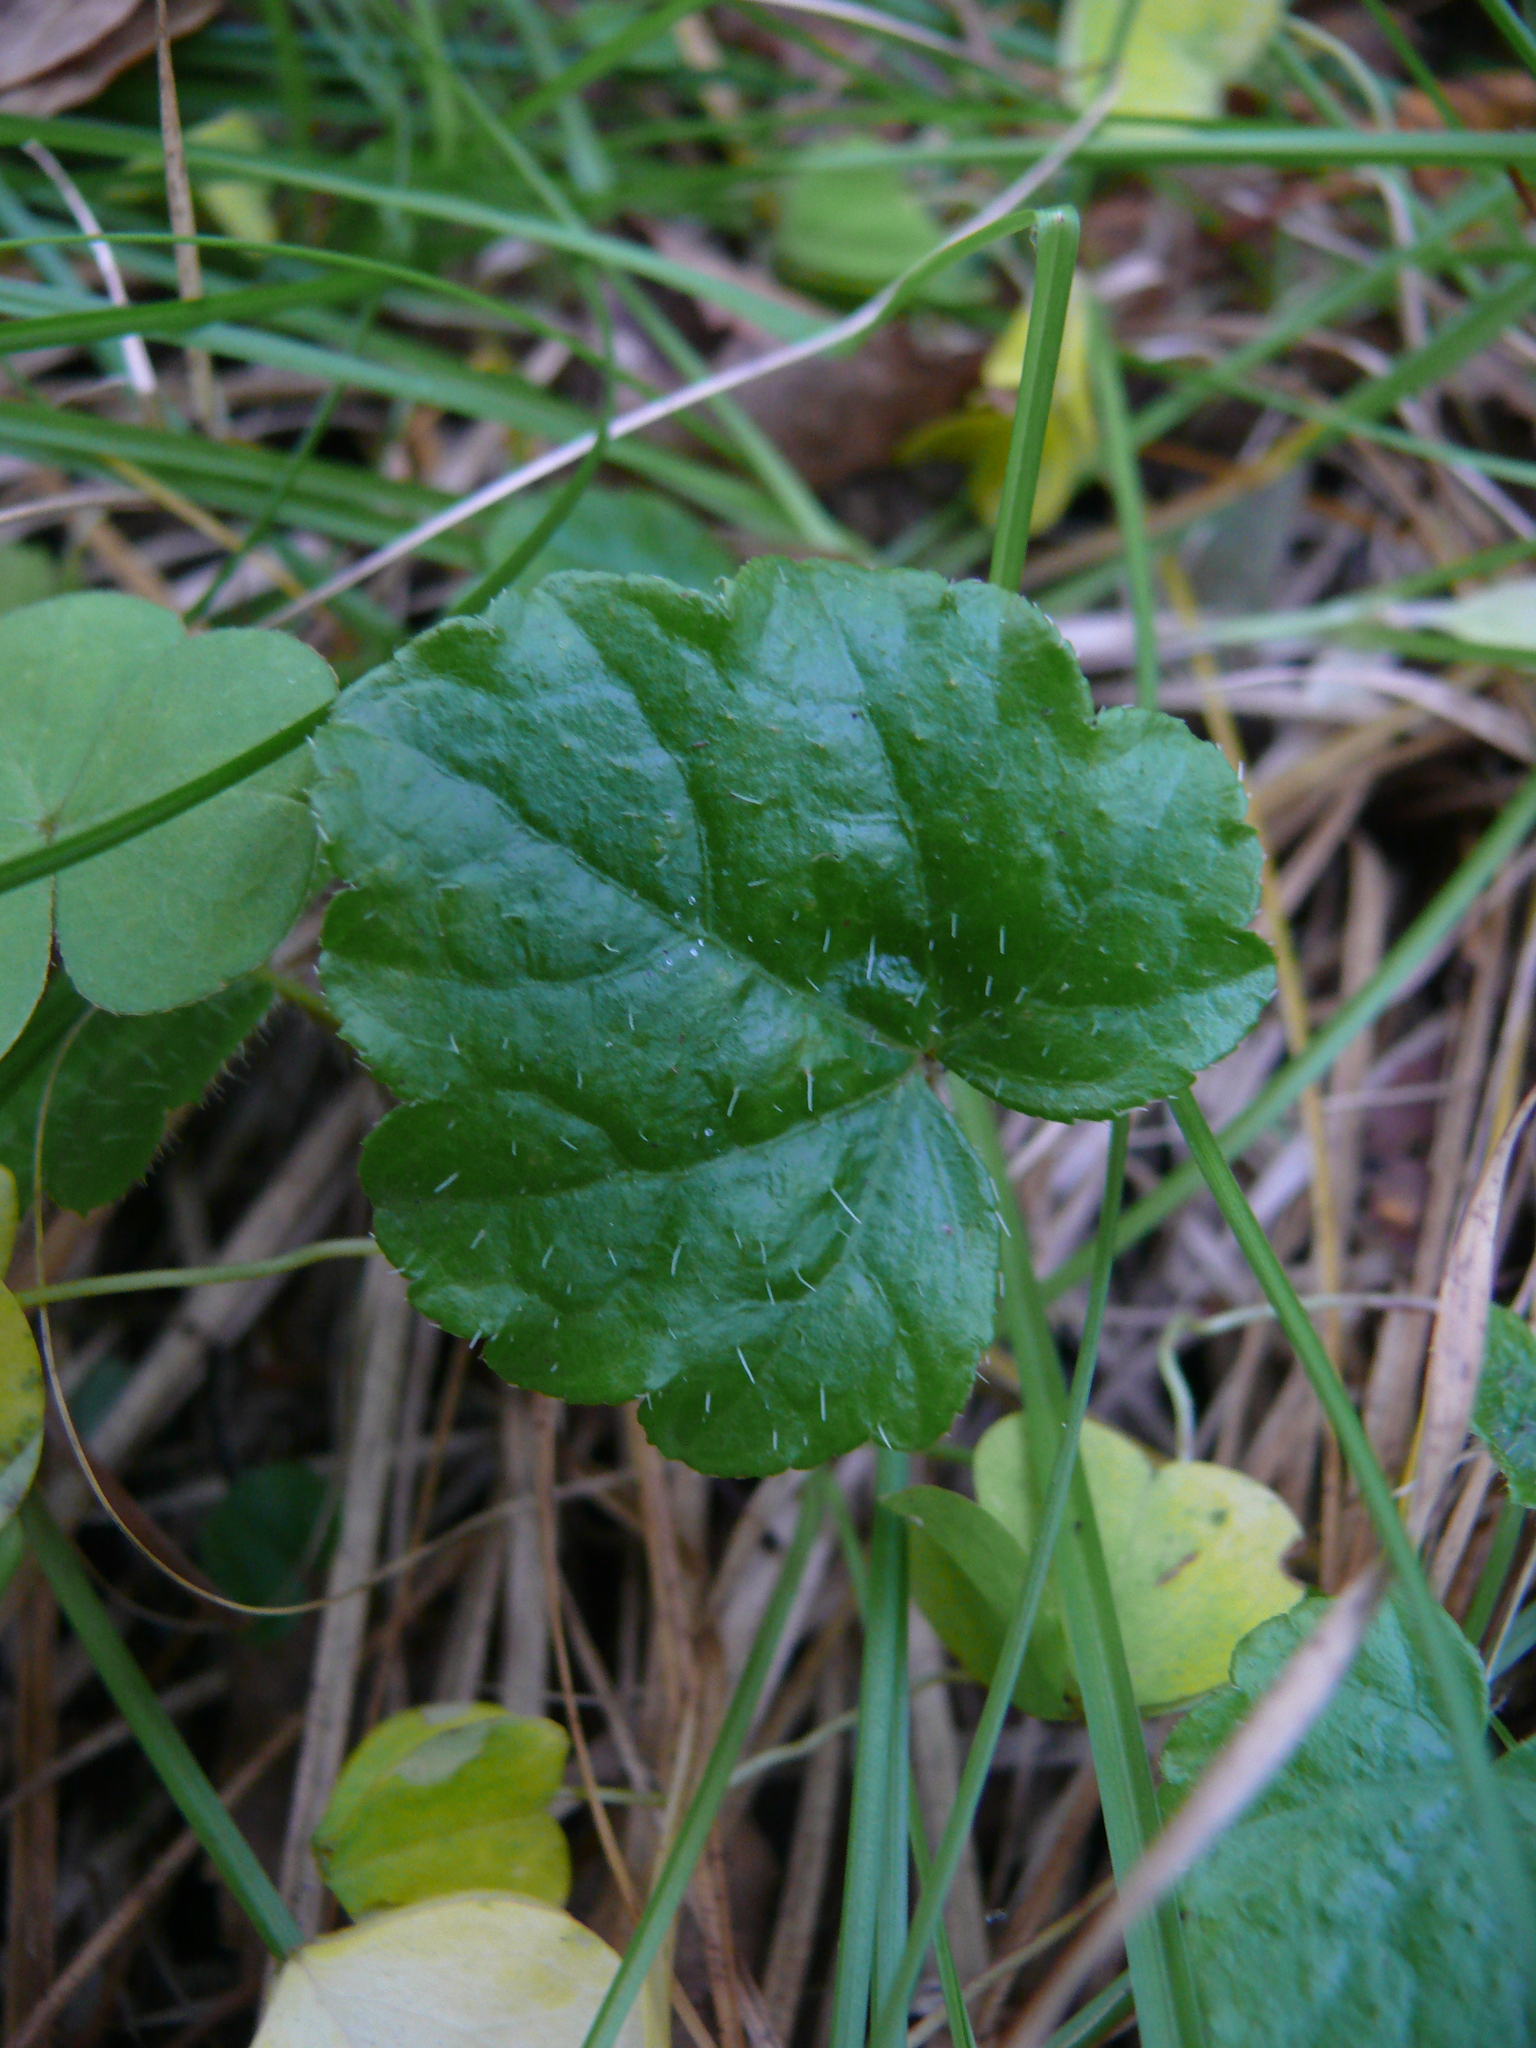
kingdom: Plantae
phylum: Tracheophyta
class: Magnoliopsida
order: Saxifragales
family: Saxifragaceae
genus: Mitella
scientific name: Mitella nuda
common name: Bare-stemmed bishop's-cap
